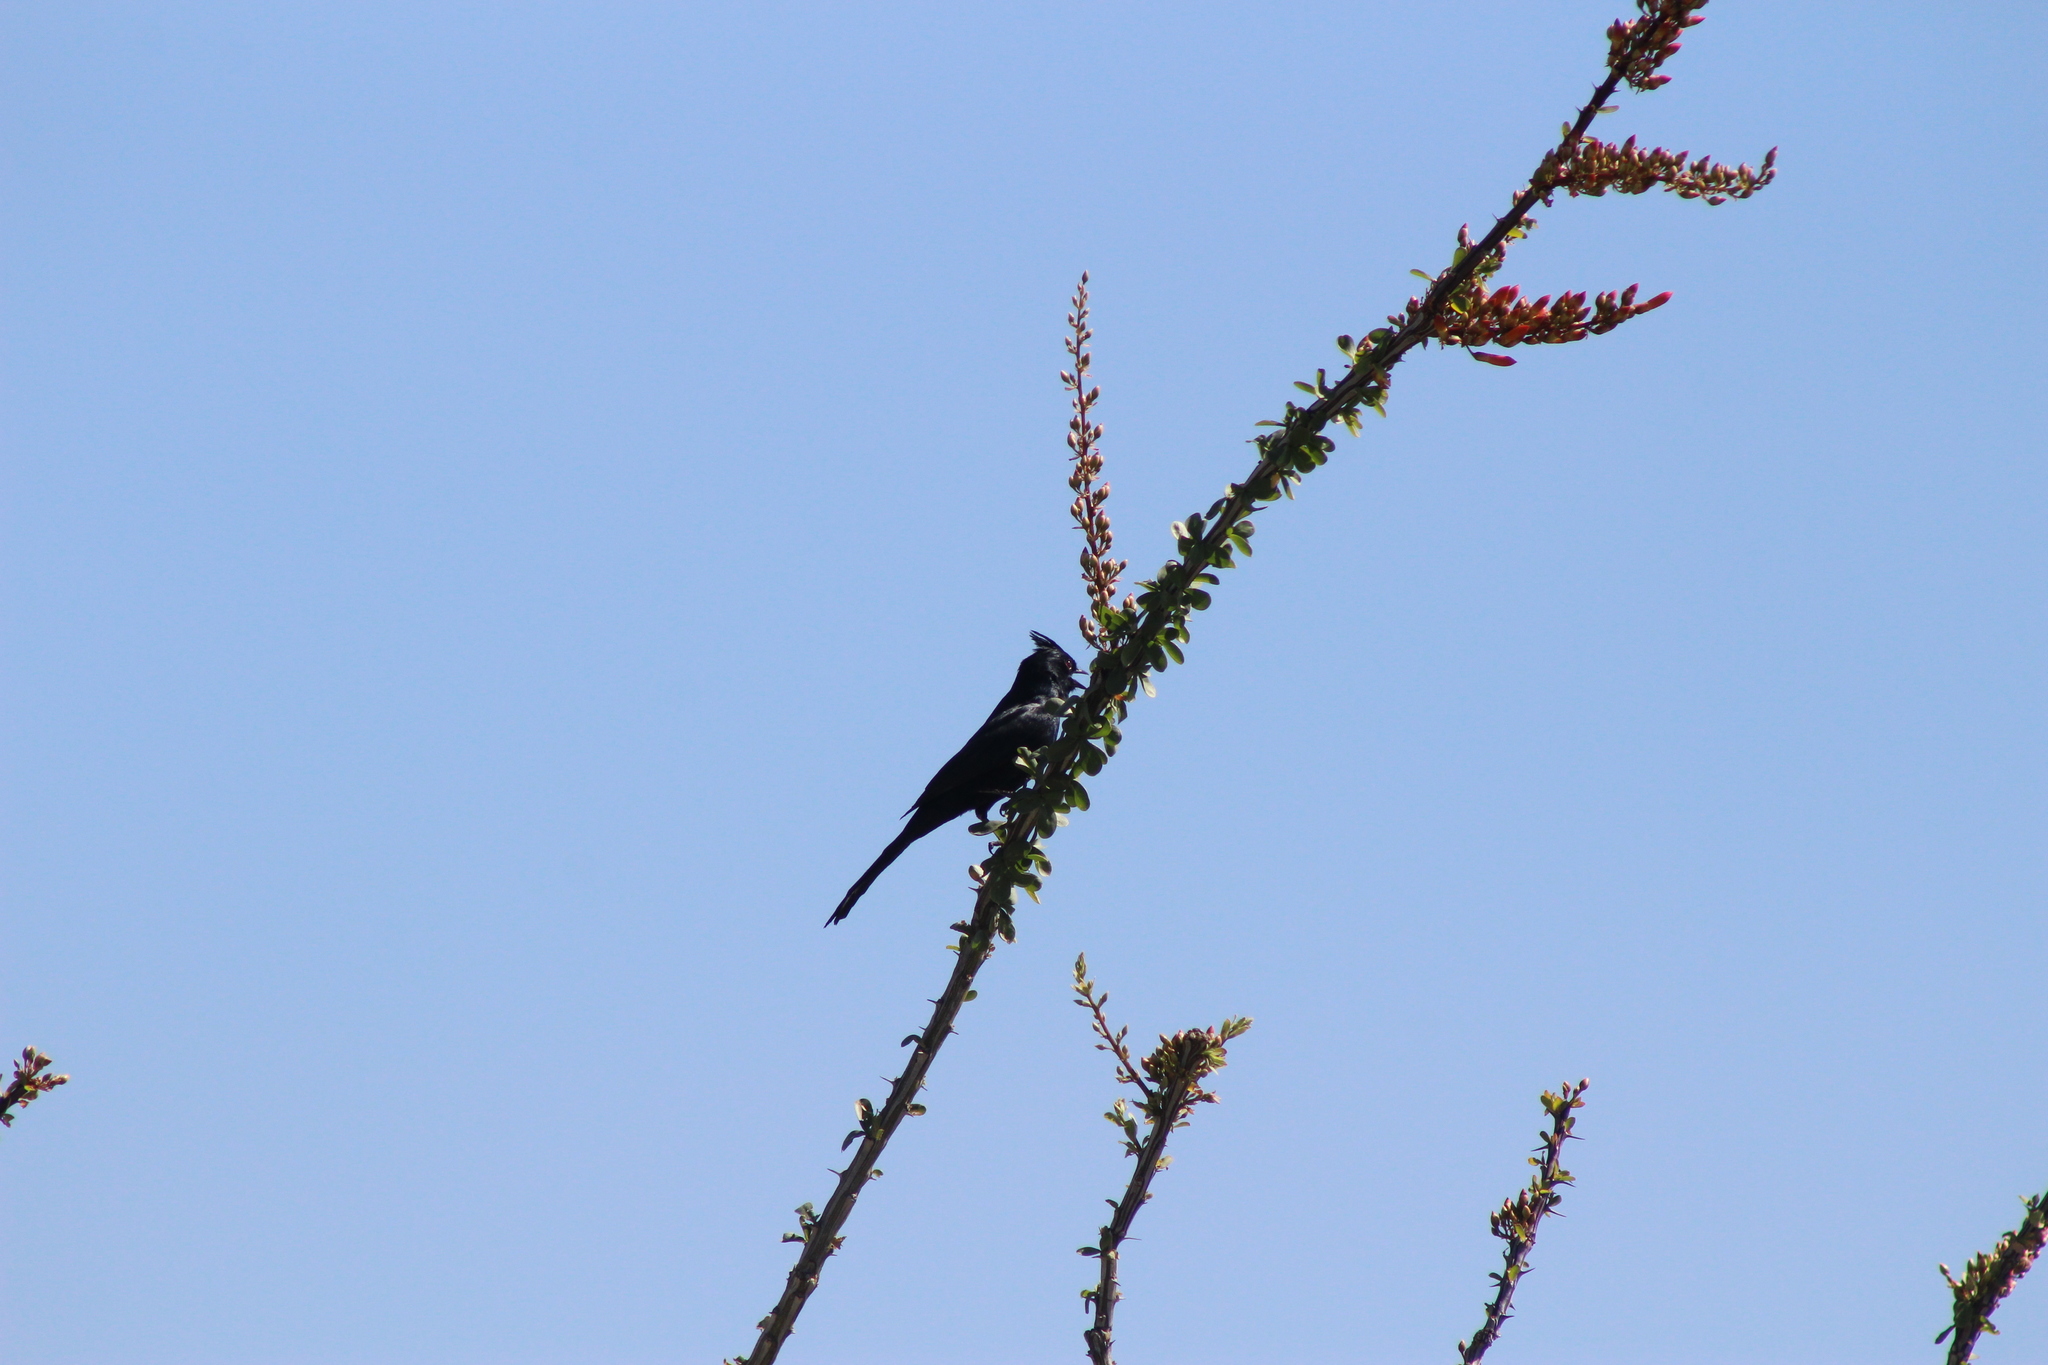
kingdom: Animalia
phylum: Chordata
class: Aves
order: Passeriformes
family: Ptilogonatidae
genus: Phainopepla
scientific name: Phainopepla nitens
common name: Phainopepla
